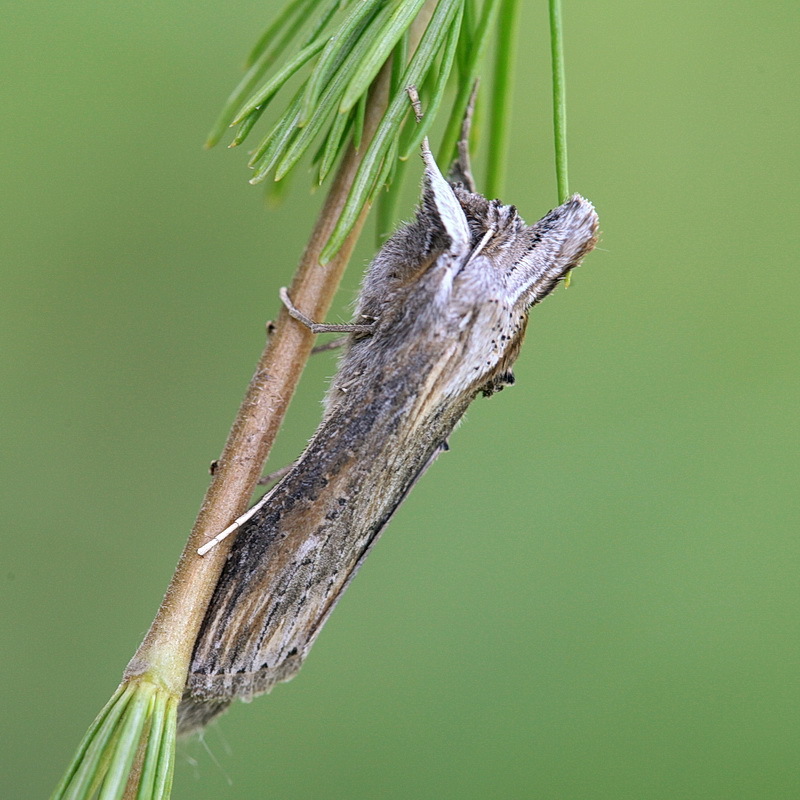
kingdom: Animalia
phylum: Arthropoda
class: Insecta
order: Lepidoptera
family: Noctuidae
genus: Cucullia
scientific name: Cucullia mixta
